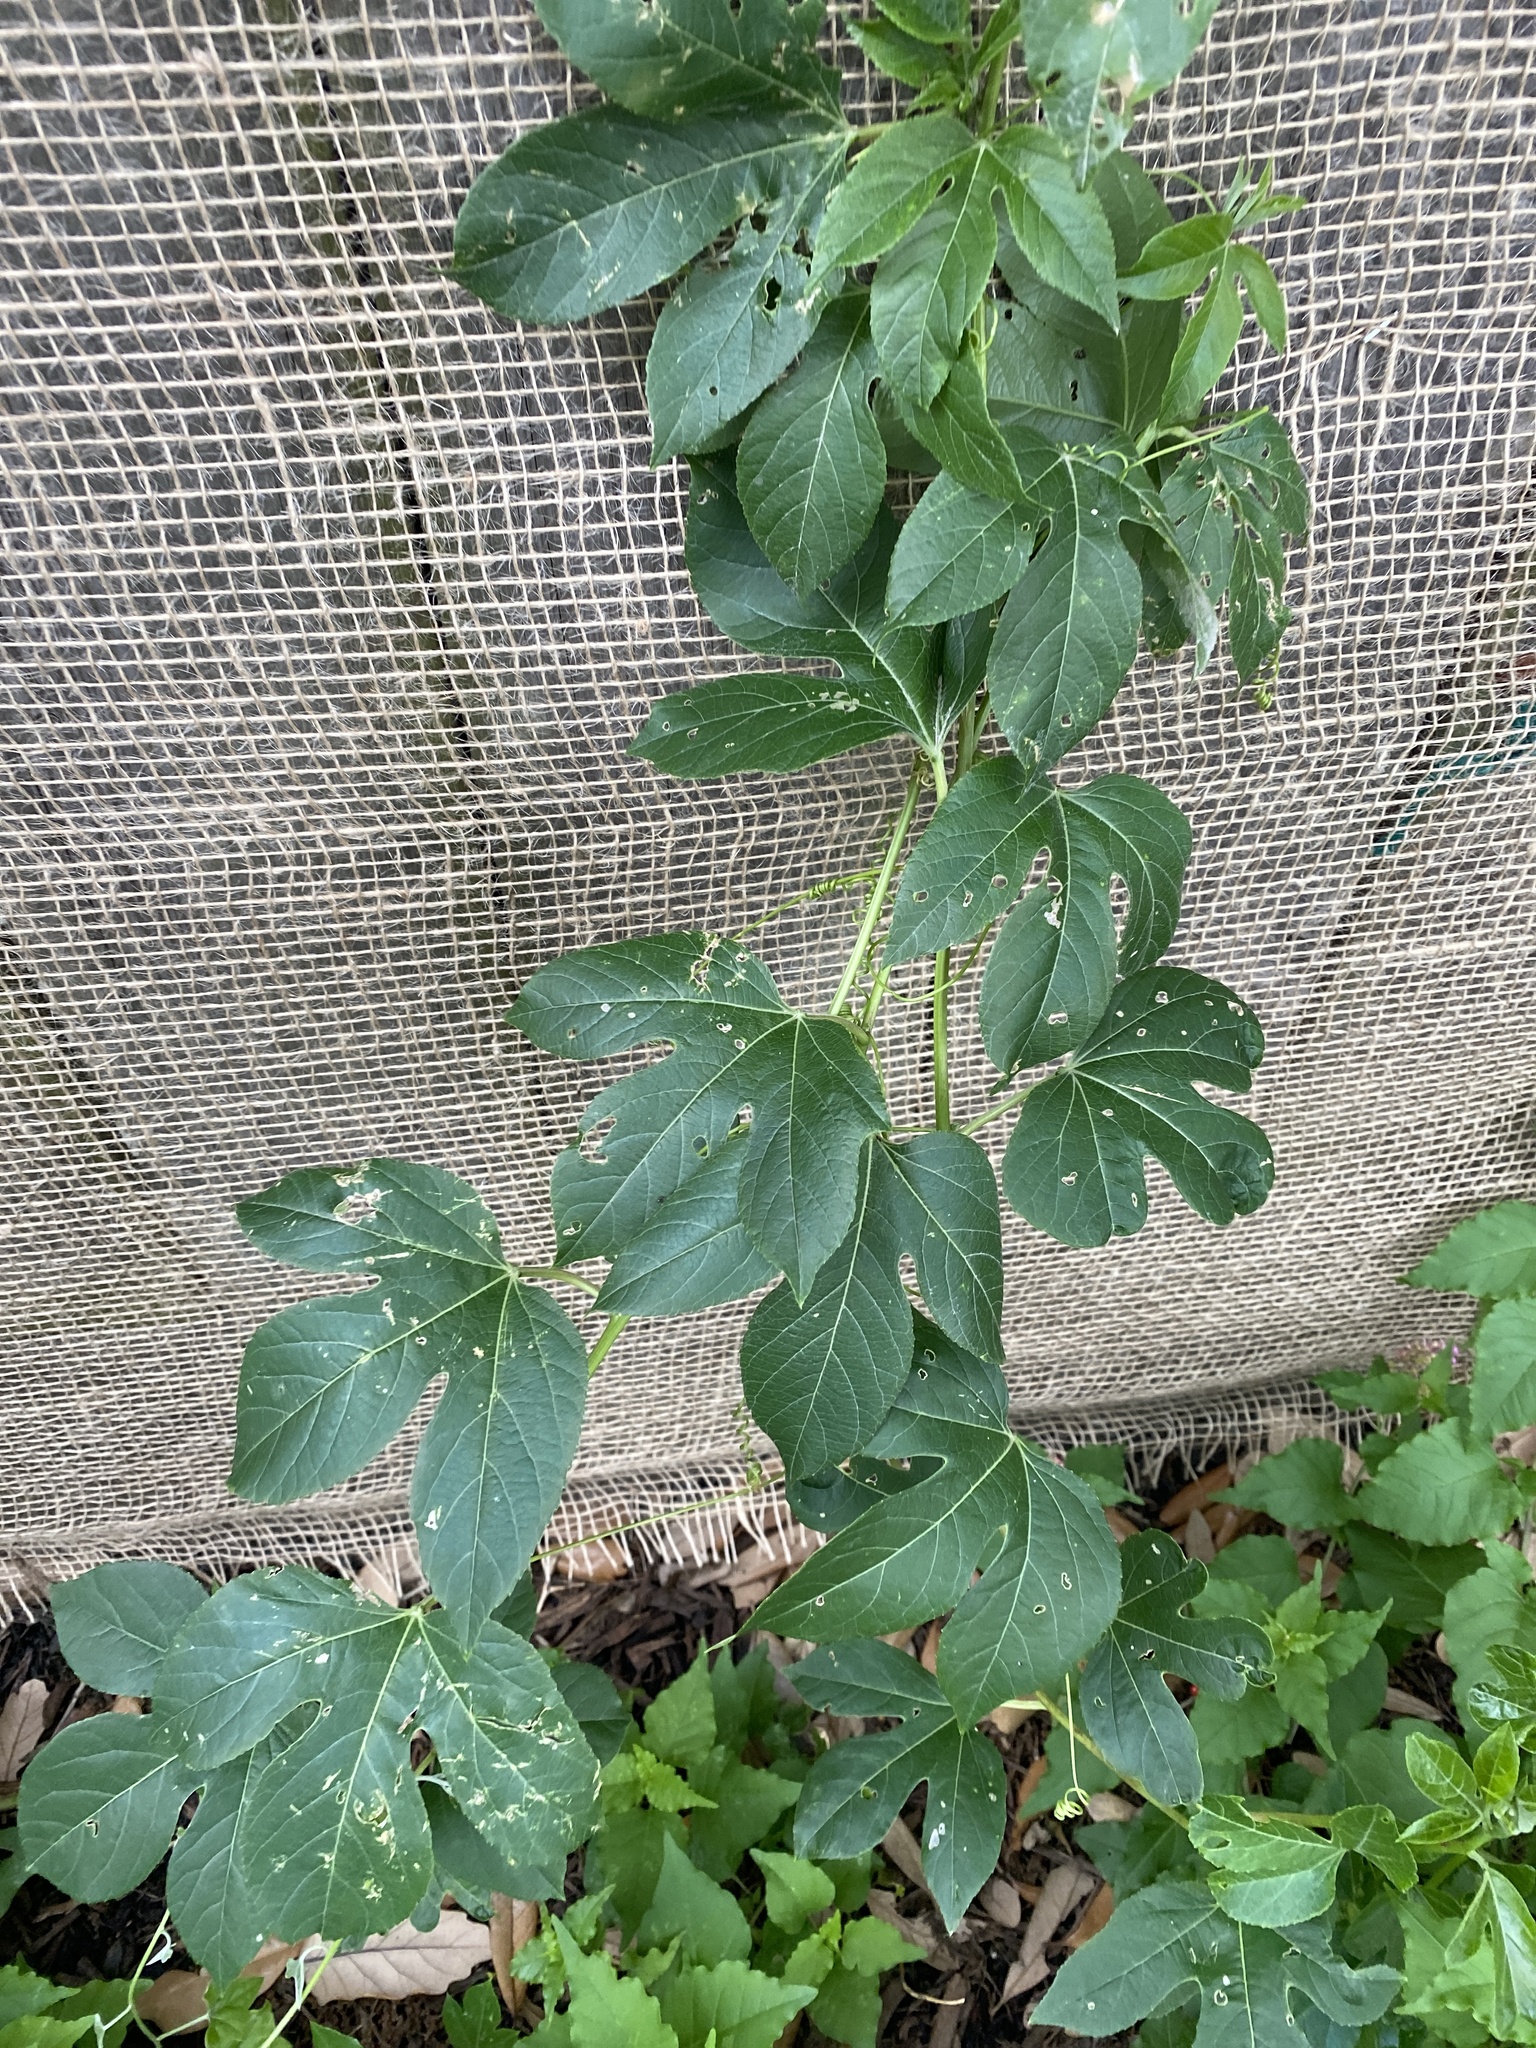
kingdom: Plantae
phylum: Tracheophyta
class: Magnoliopsida
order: Malpighiales
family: Passifloraceae
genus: Passiflora
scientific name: Passiflora incarnata
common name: Apricot-vine
